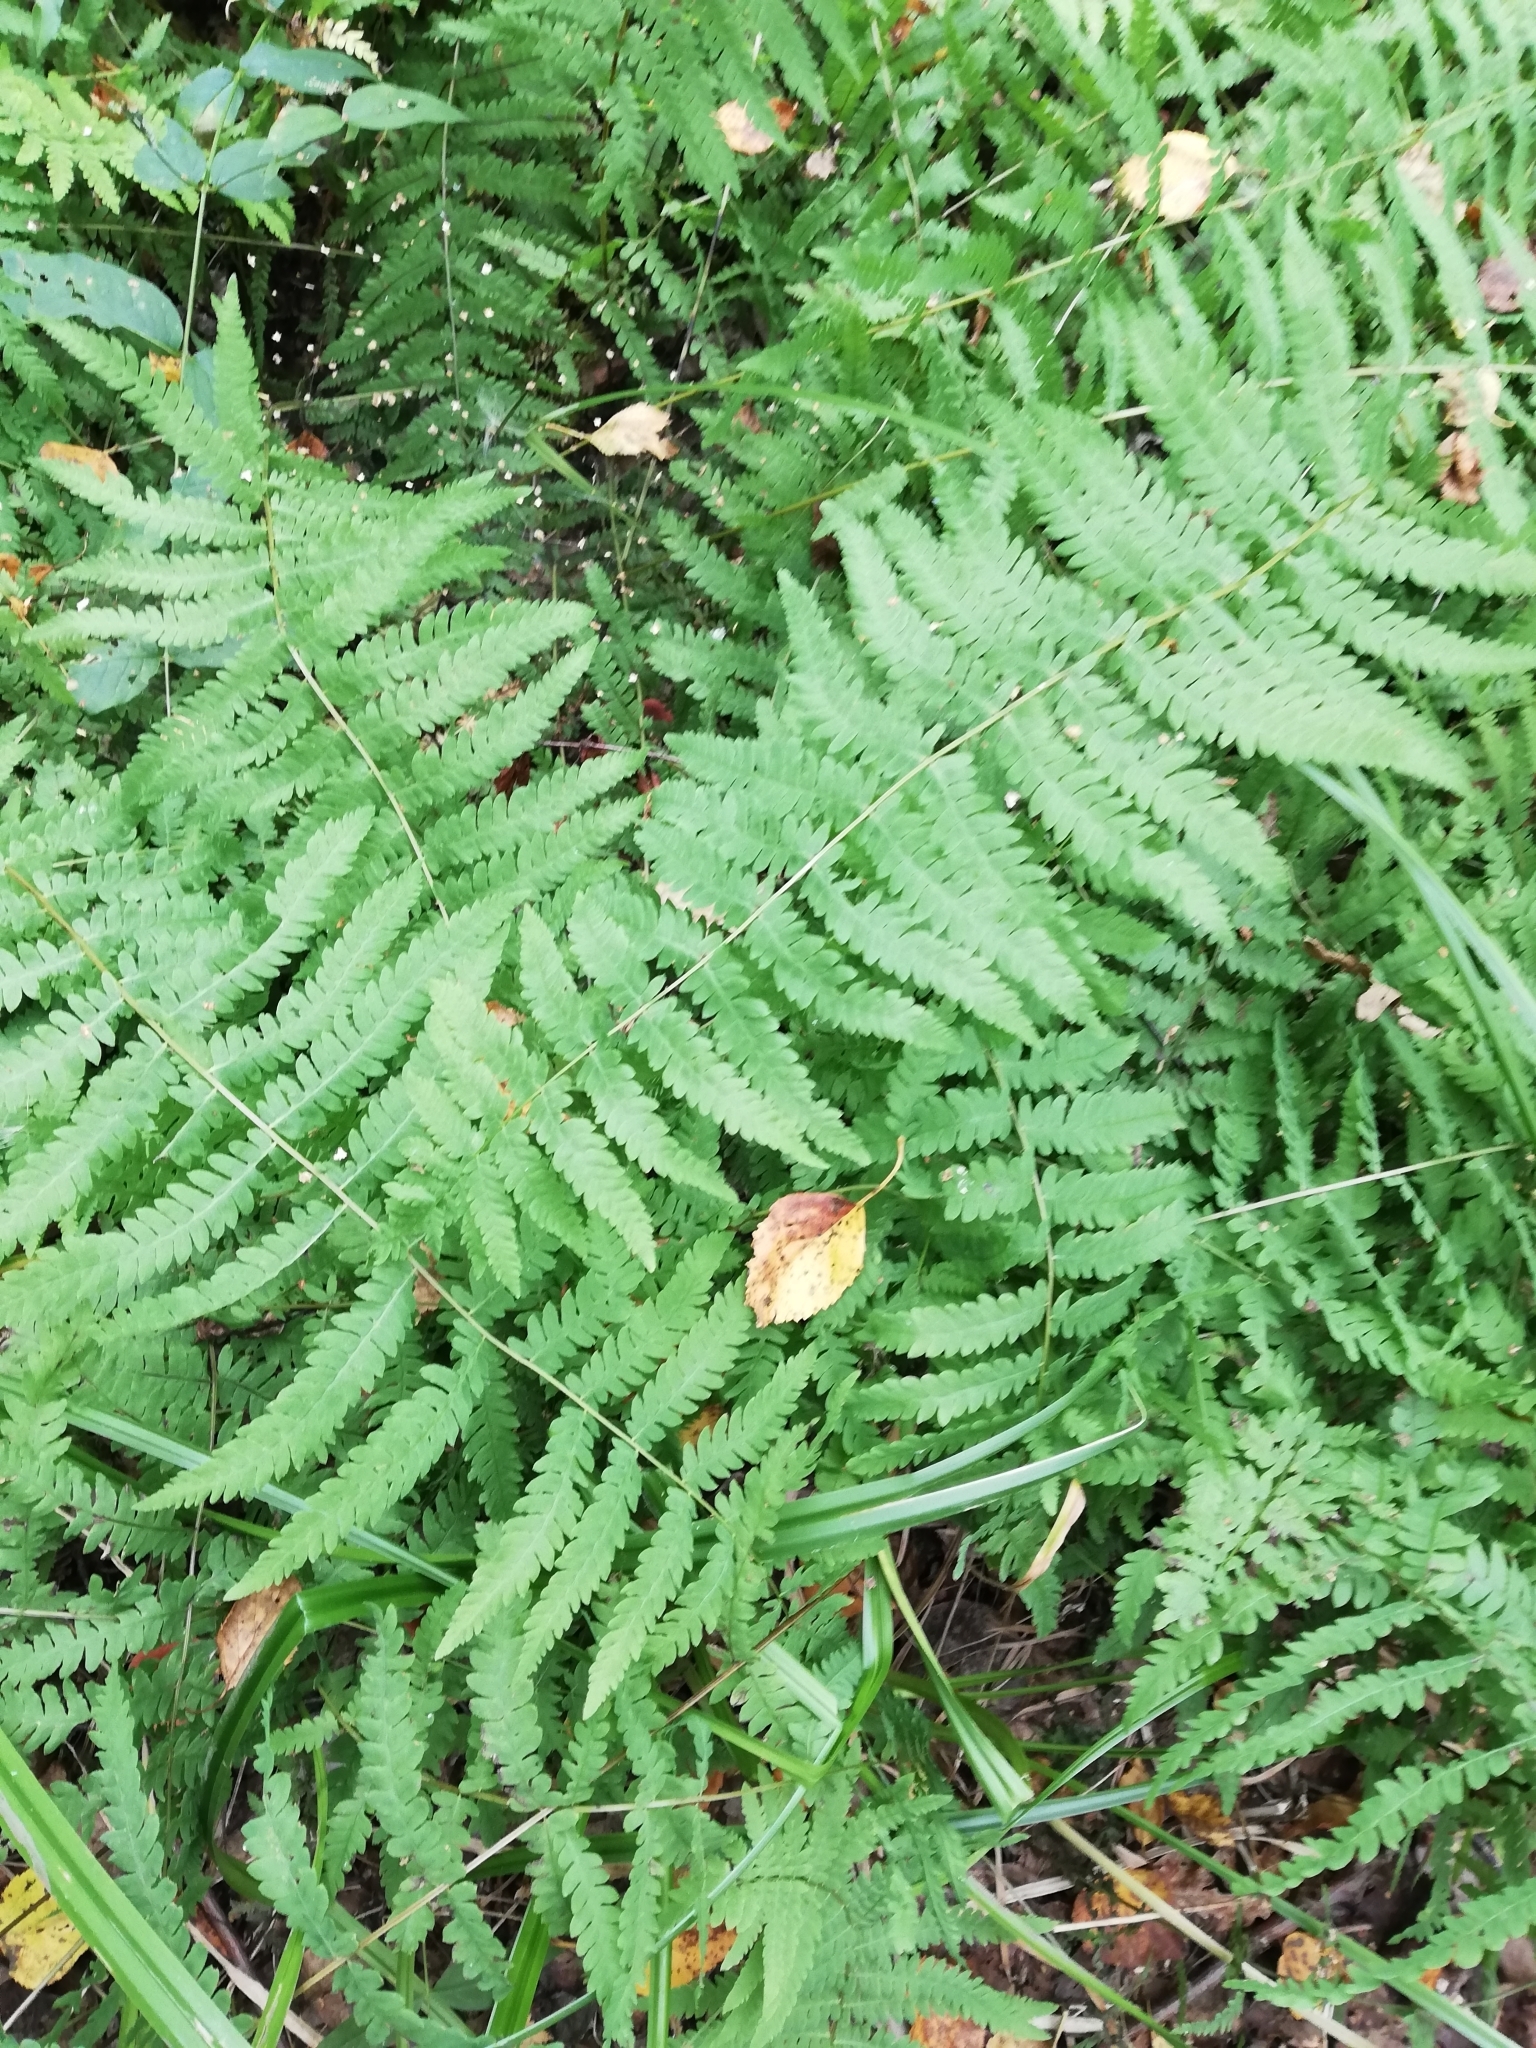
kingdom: Plantae
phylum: Tracheophyta
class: Polypodiopsida
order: Polypodiales
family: Thelypteridaceae
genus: Thelypteris
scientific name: Thelypteris palustris
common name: Marsh fern
